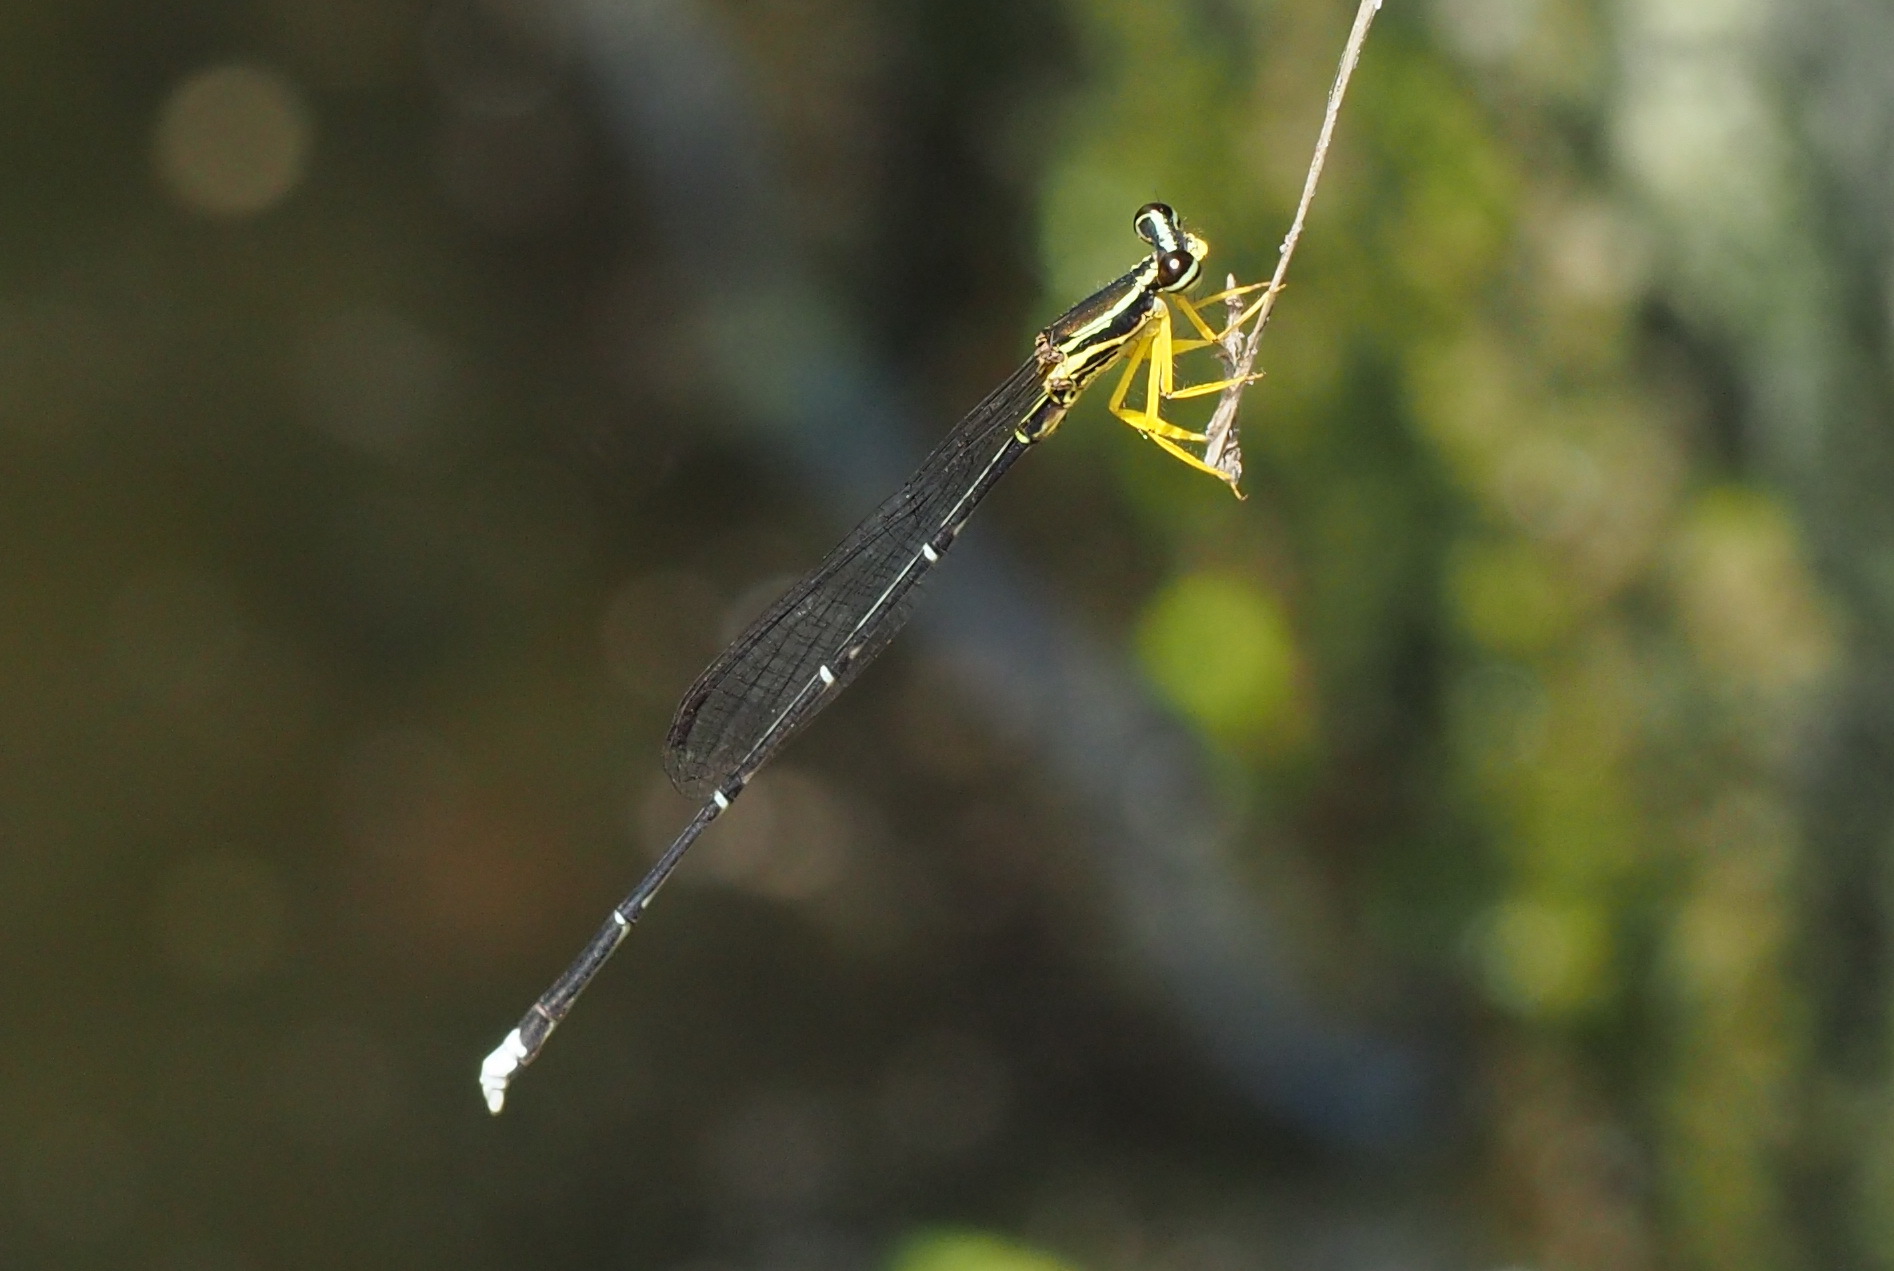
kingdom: Animalia
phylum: Arthropoda
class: Insecta
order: Odonata
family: Platycnemididae
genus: Copera
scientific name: Copera marginipes
